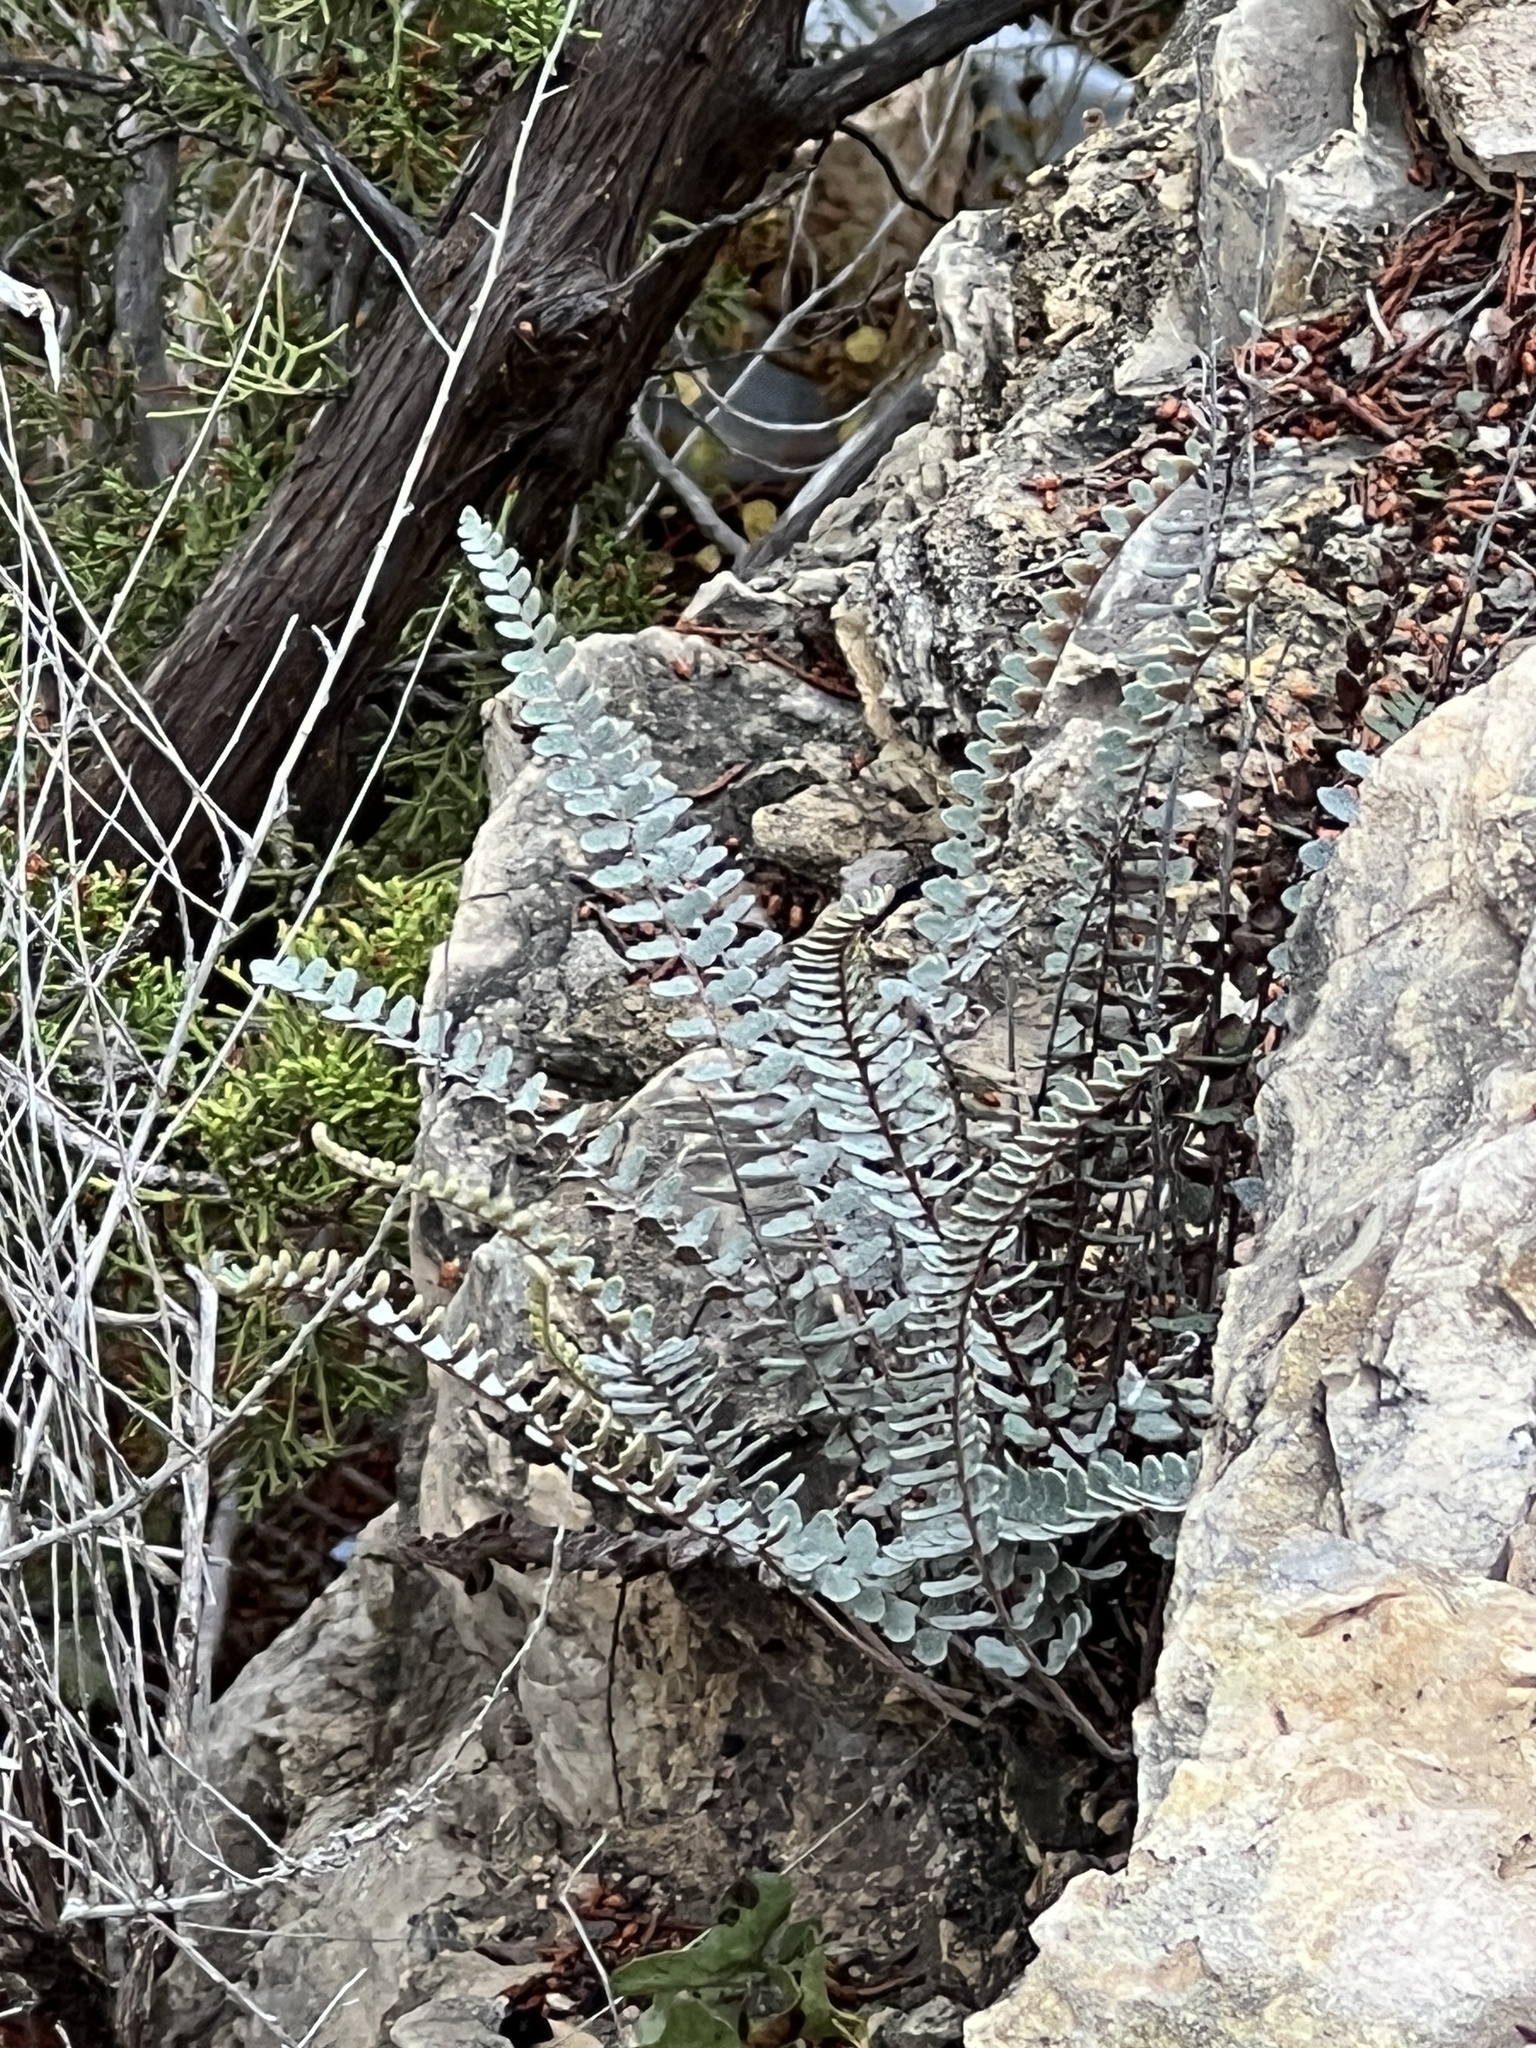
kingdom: Plantae
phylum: Tracheophyta
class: Polypodiopsida
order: Polypodiales
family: Pteridaceae
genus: Astrolepis
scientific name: Astrolepis integerrima
